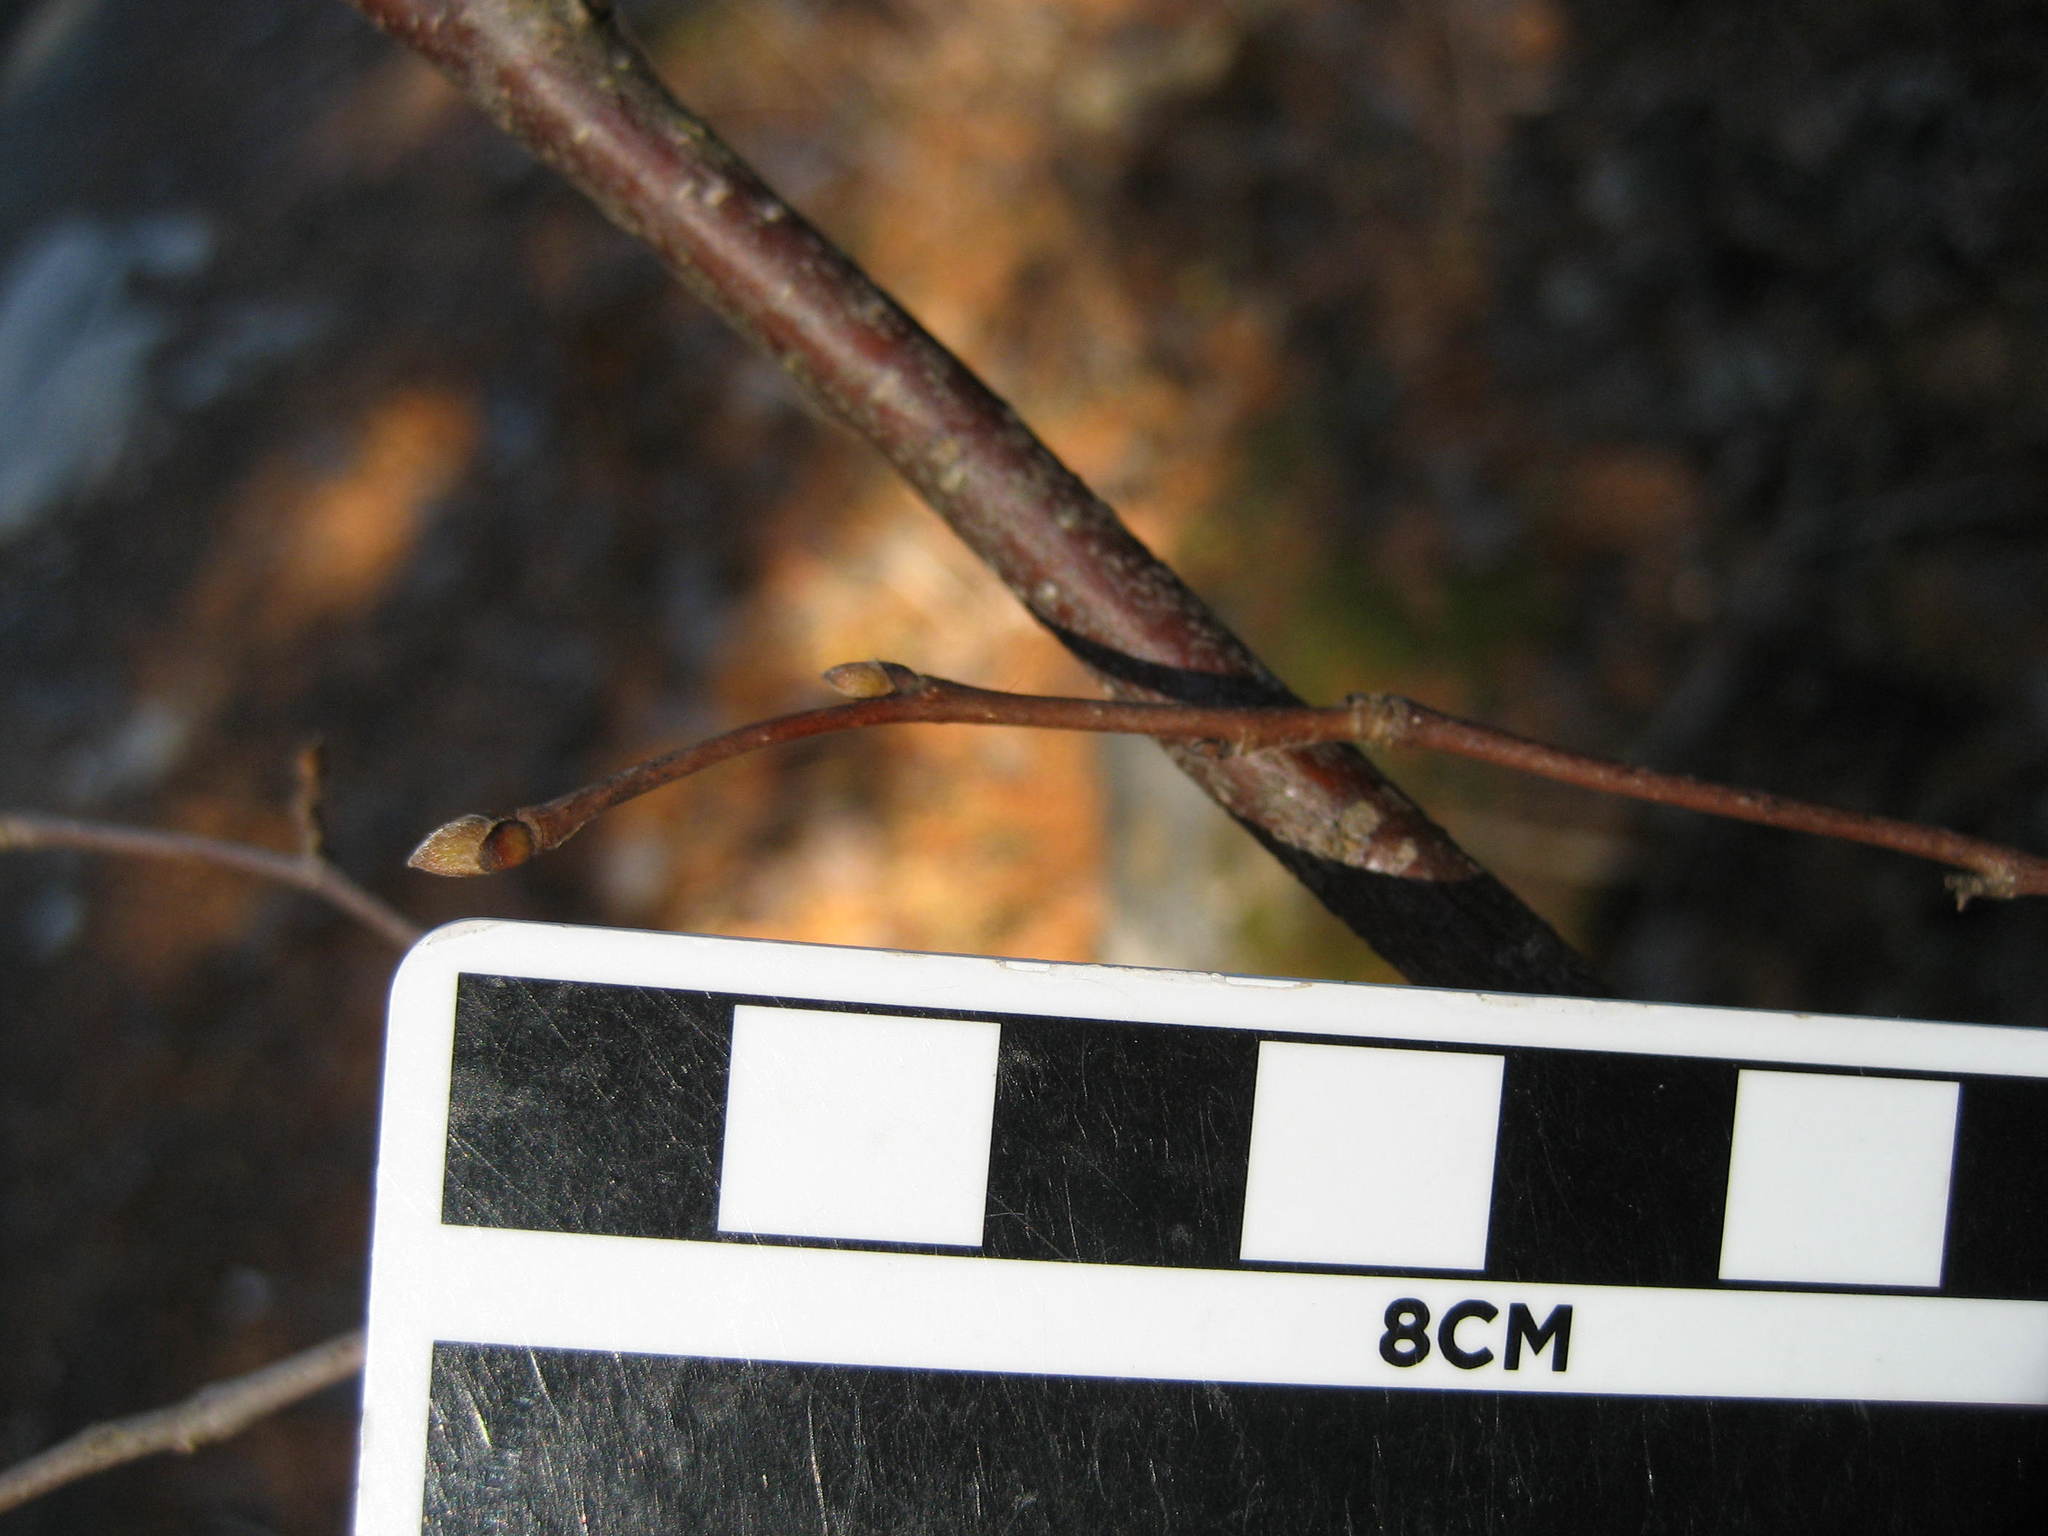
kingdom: Plantae
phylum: Tracheophyta
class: Magnoliopsida
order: Fagales
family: Betulaceae
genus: Corylus
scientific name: Corylus cornuta
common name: Beaked hazel
